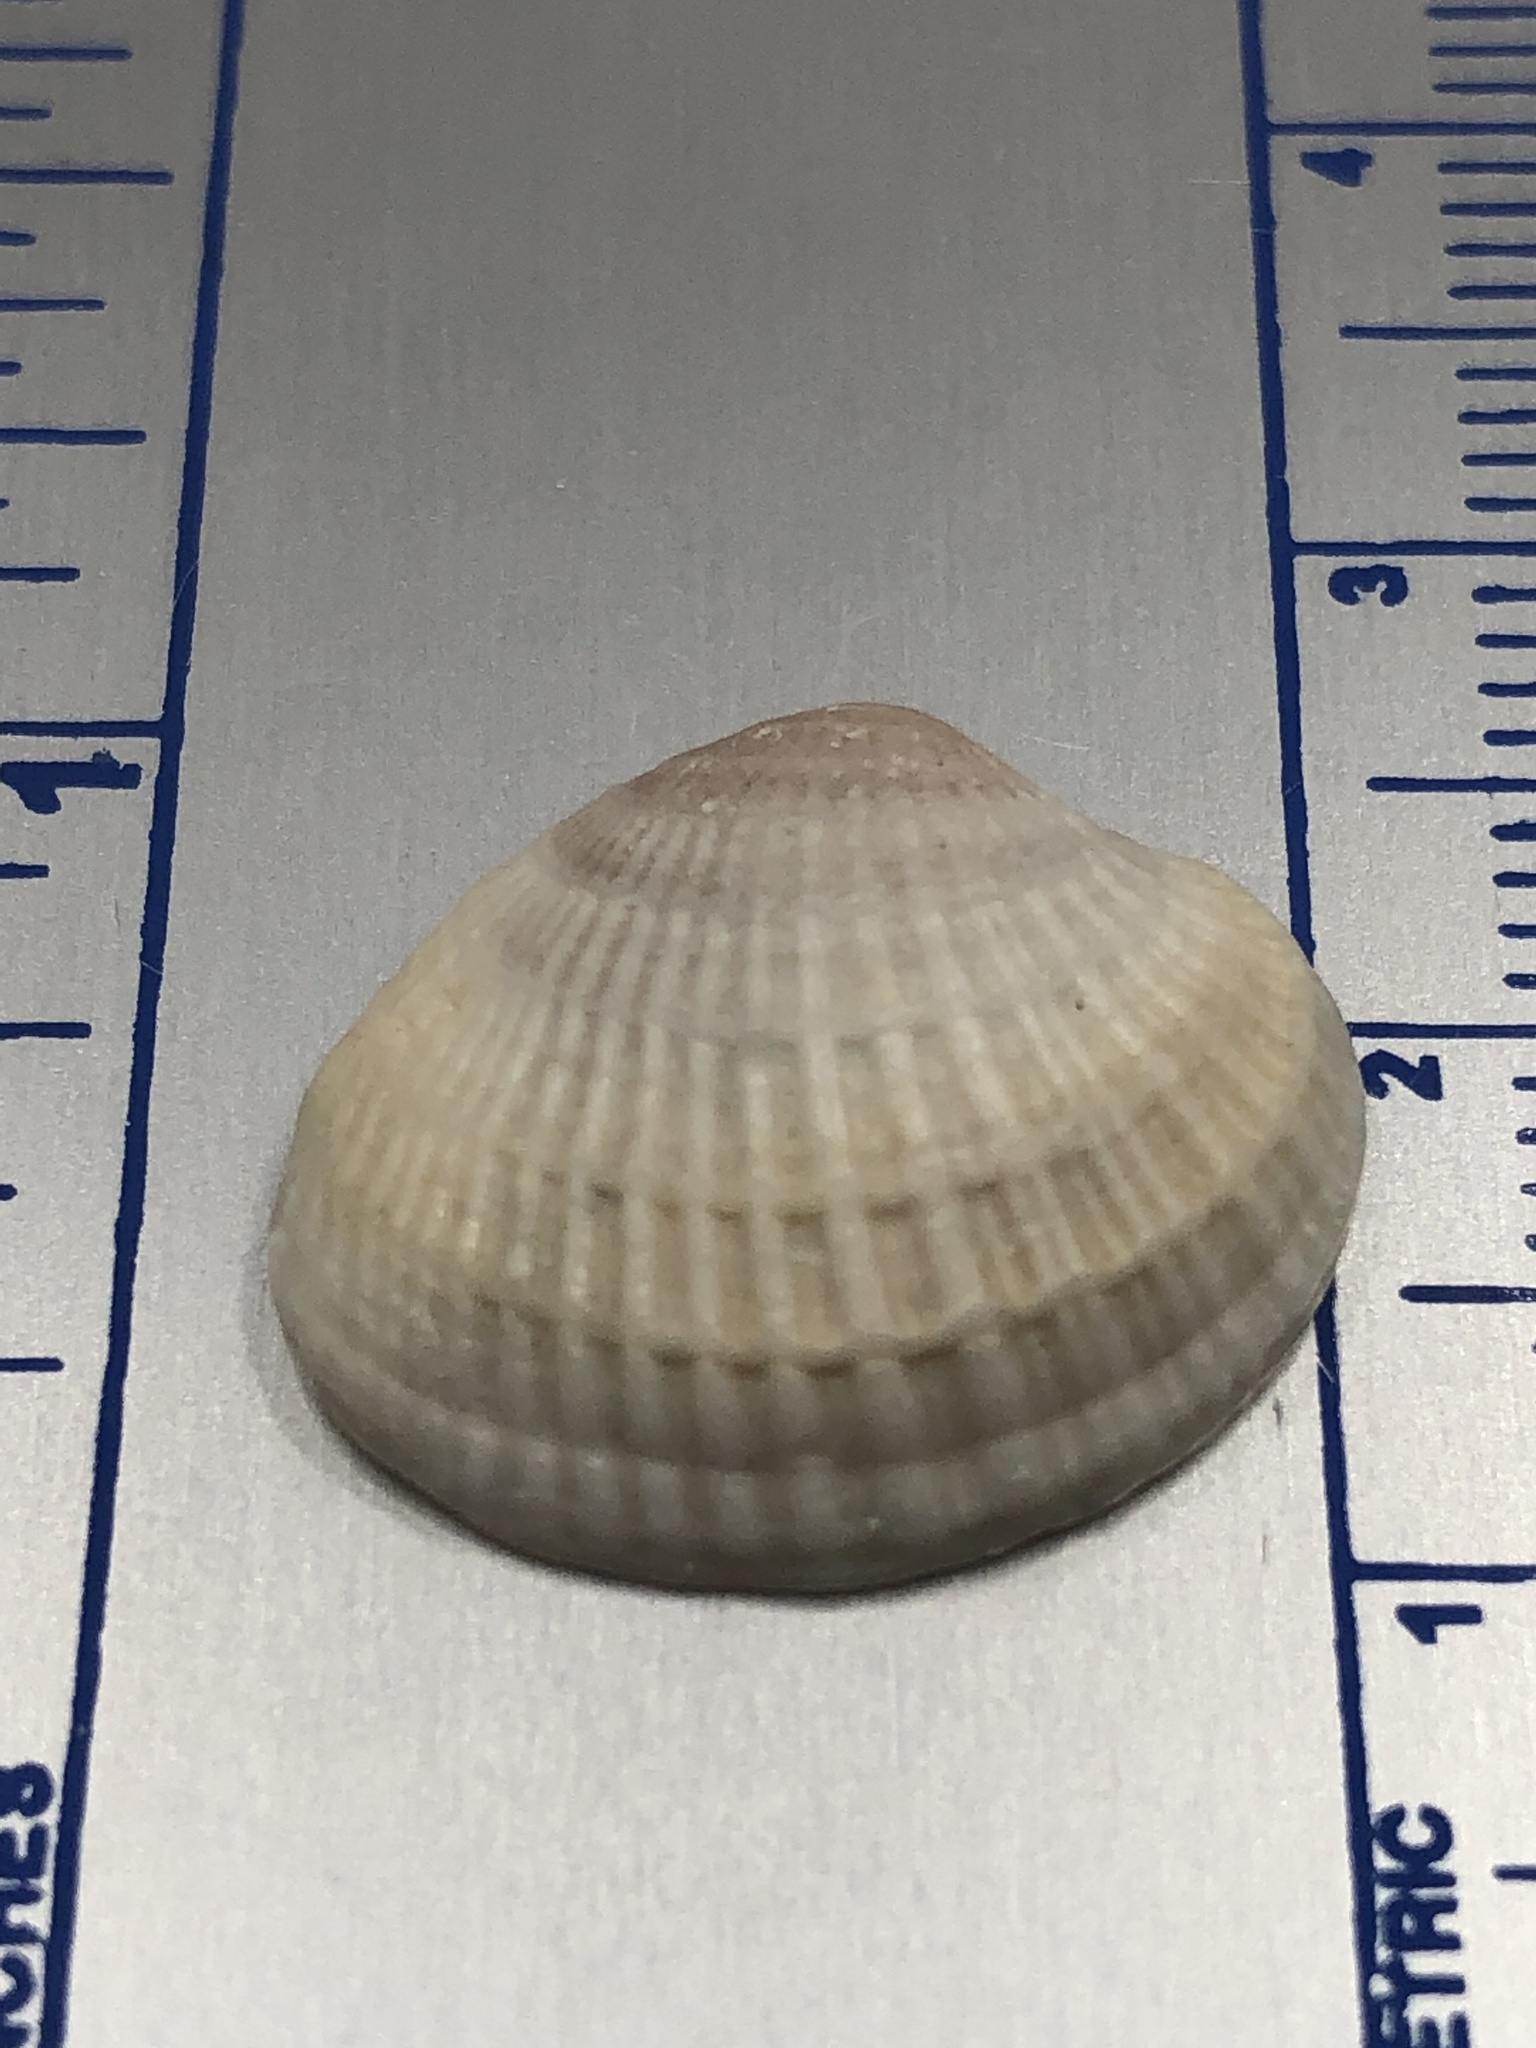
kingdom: Animalia
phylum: Mollusca
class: Bivalvia
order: Venerida
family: Veneridae
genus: Chione
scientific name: Chione elevata
